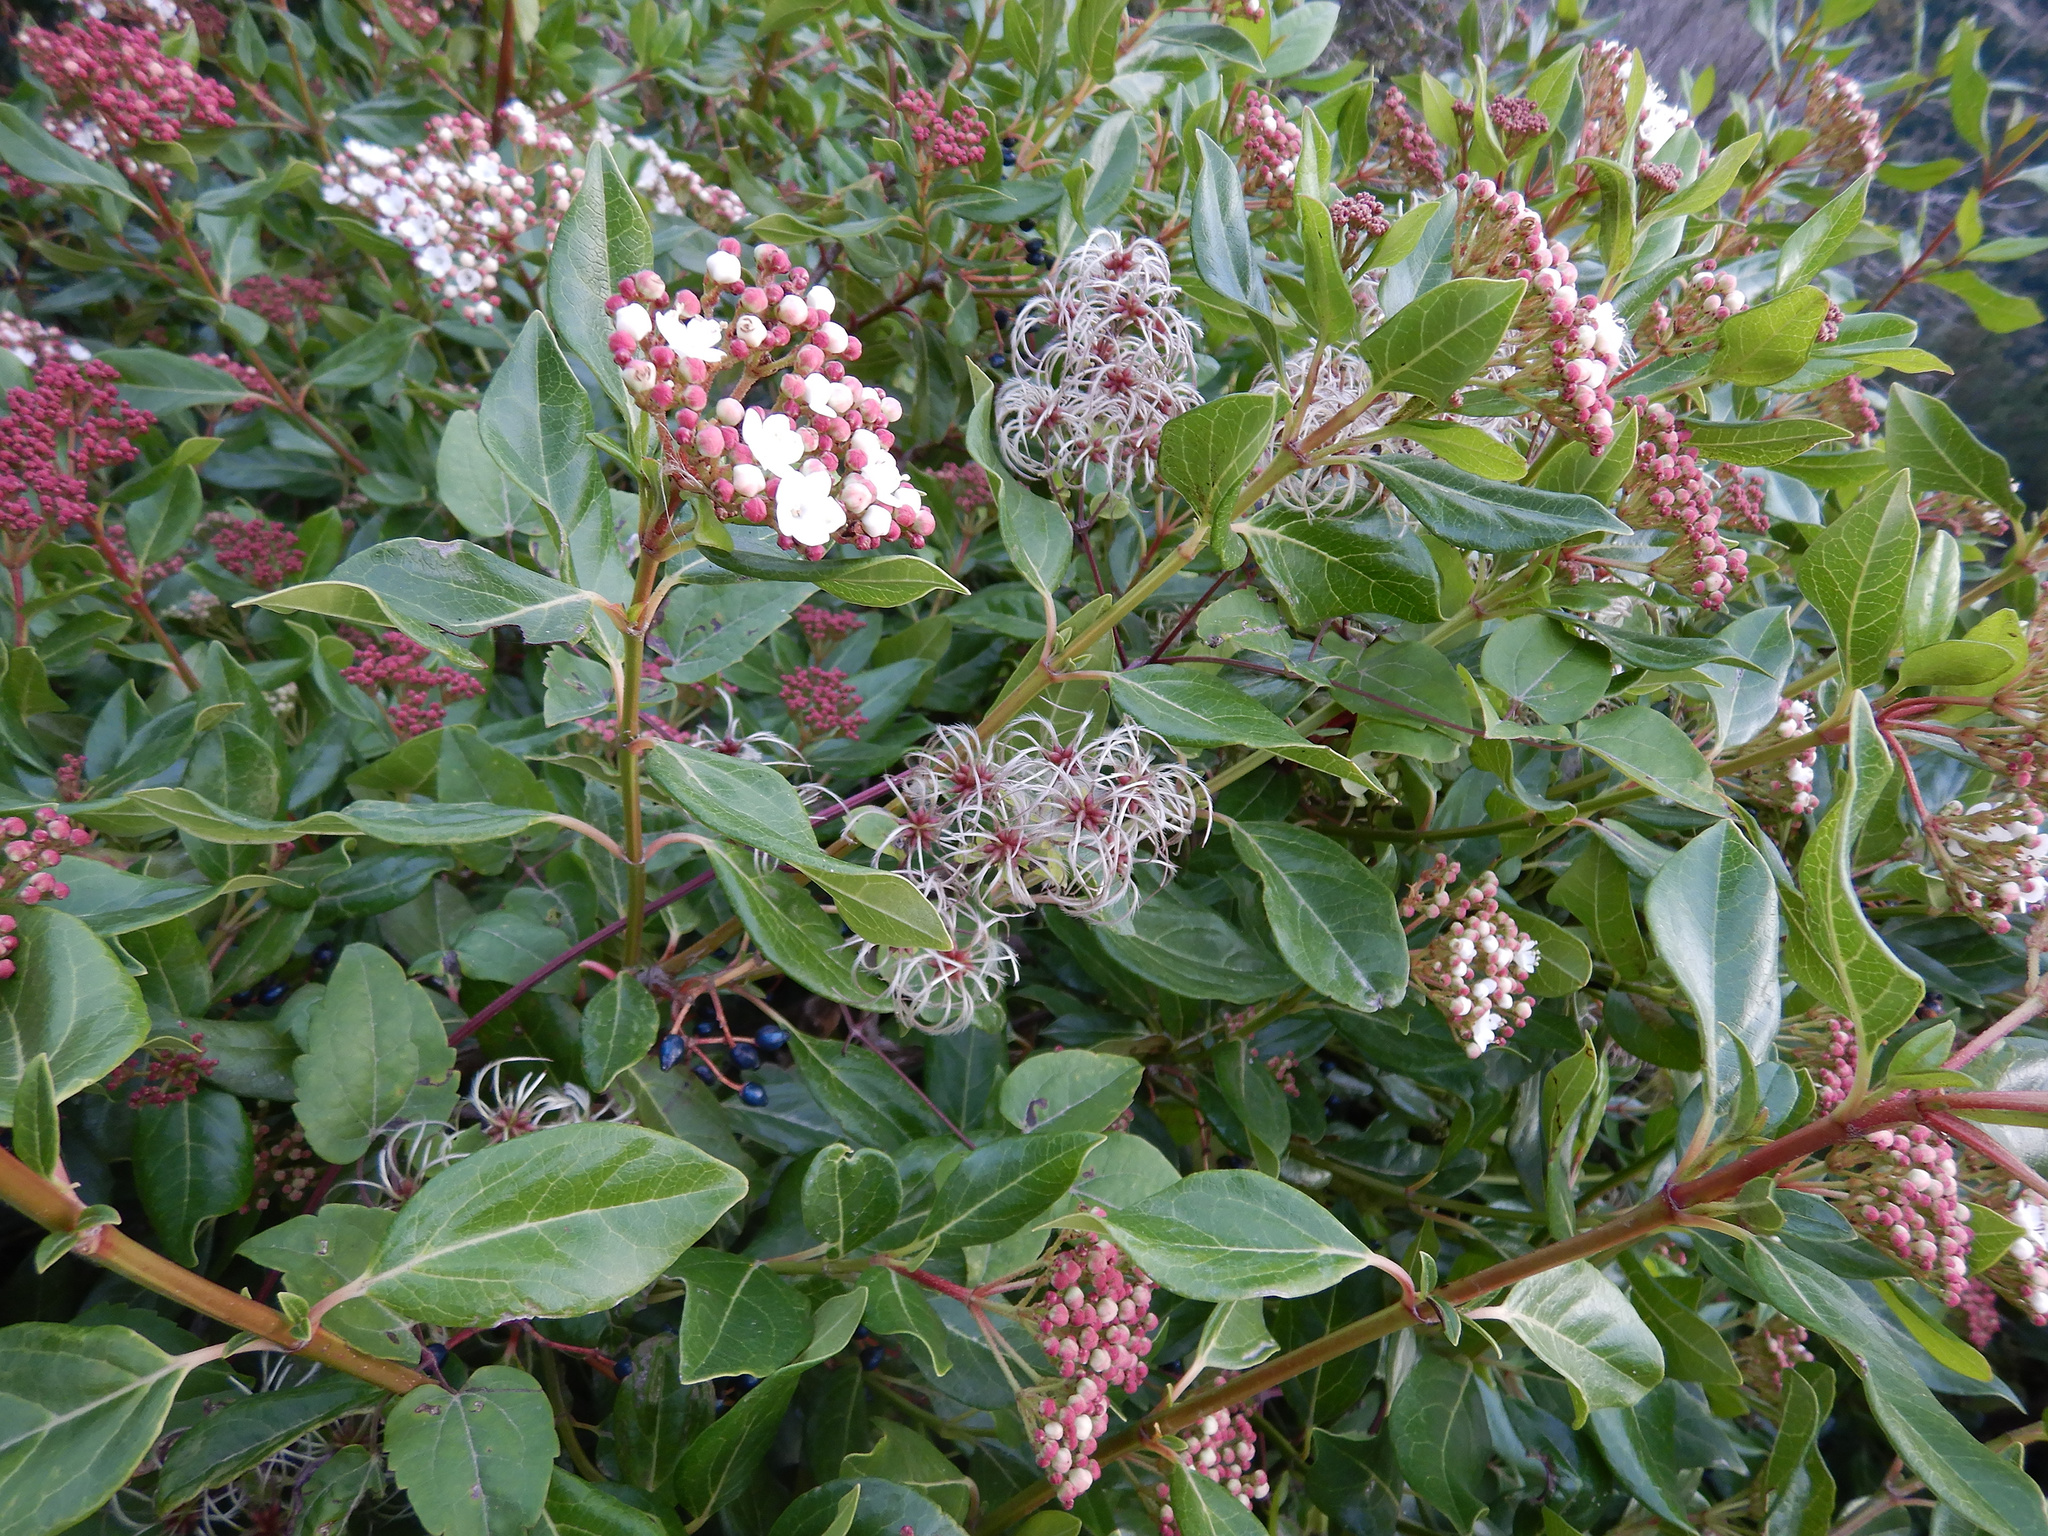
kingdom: Plantae
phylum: Tracheophyta
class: Magnoliopsida
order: Ranunculales
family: Ranunculaceae
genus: Clematis
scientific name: Clematis vitalba
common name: Evergreen clematis
